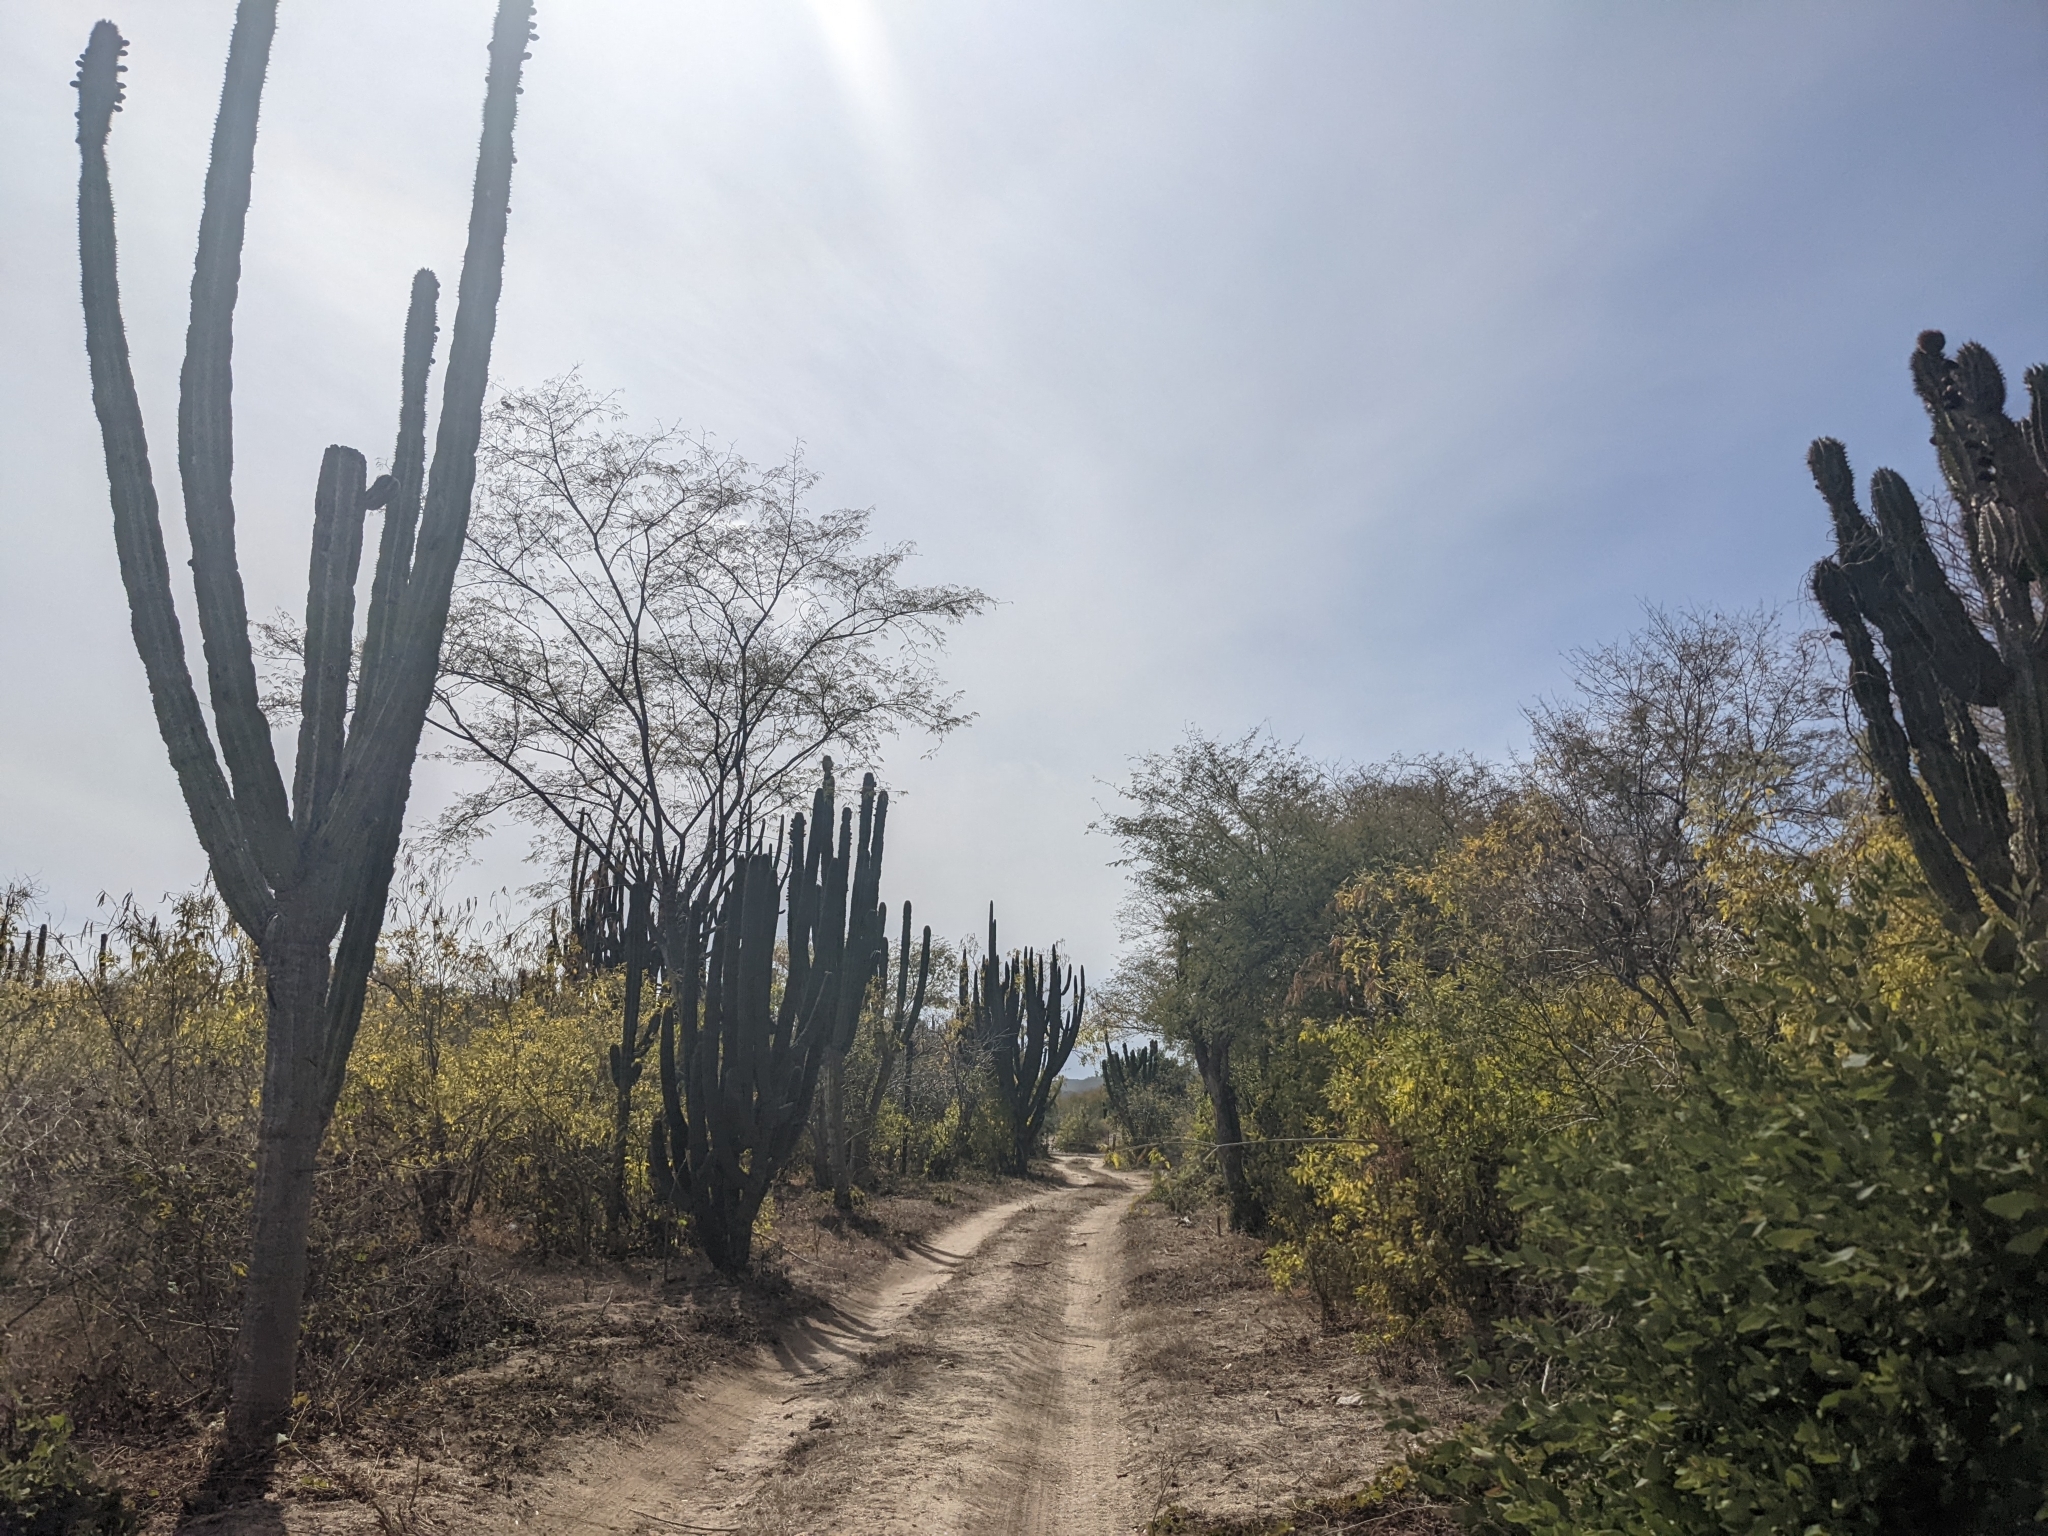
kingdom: Plantae
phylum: Tracheophyta
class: Magnoliopsida
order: Caryophyllales
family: Cactaceae
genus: Pachycereus
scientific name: Pachycereus pecten-aboriginum
